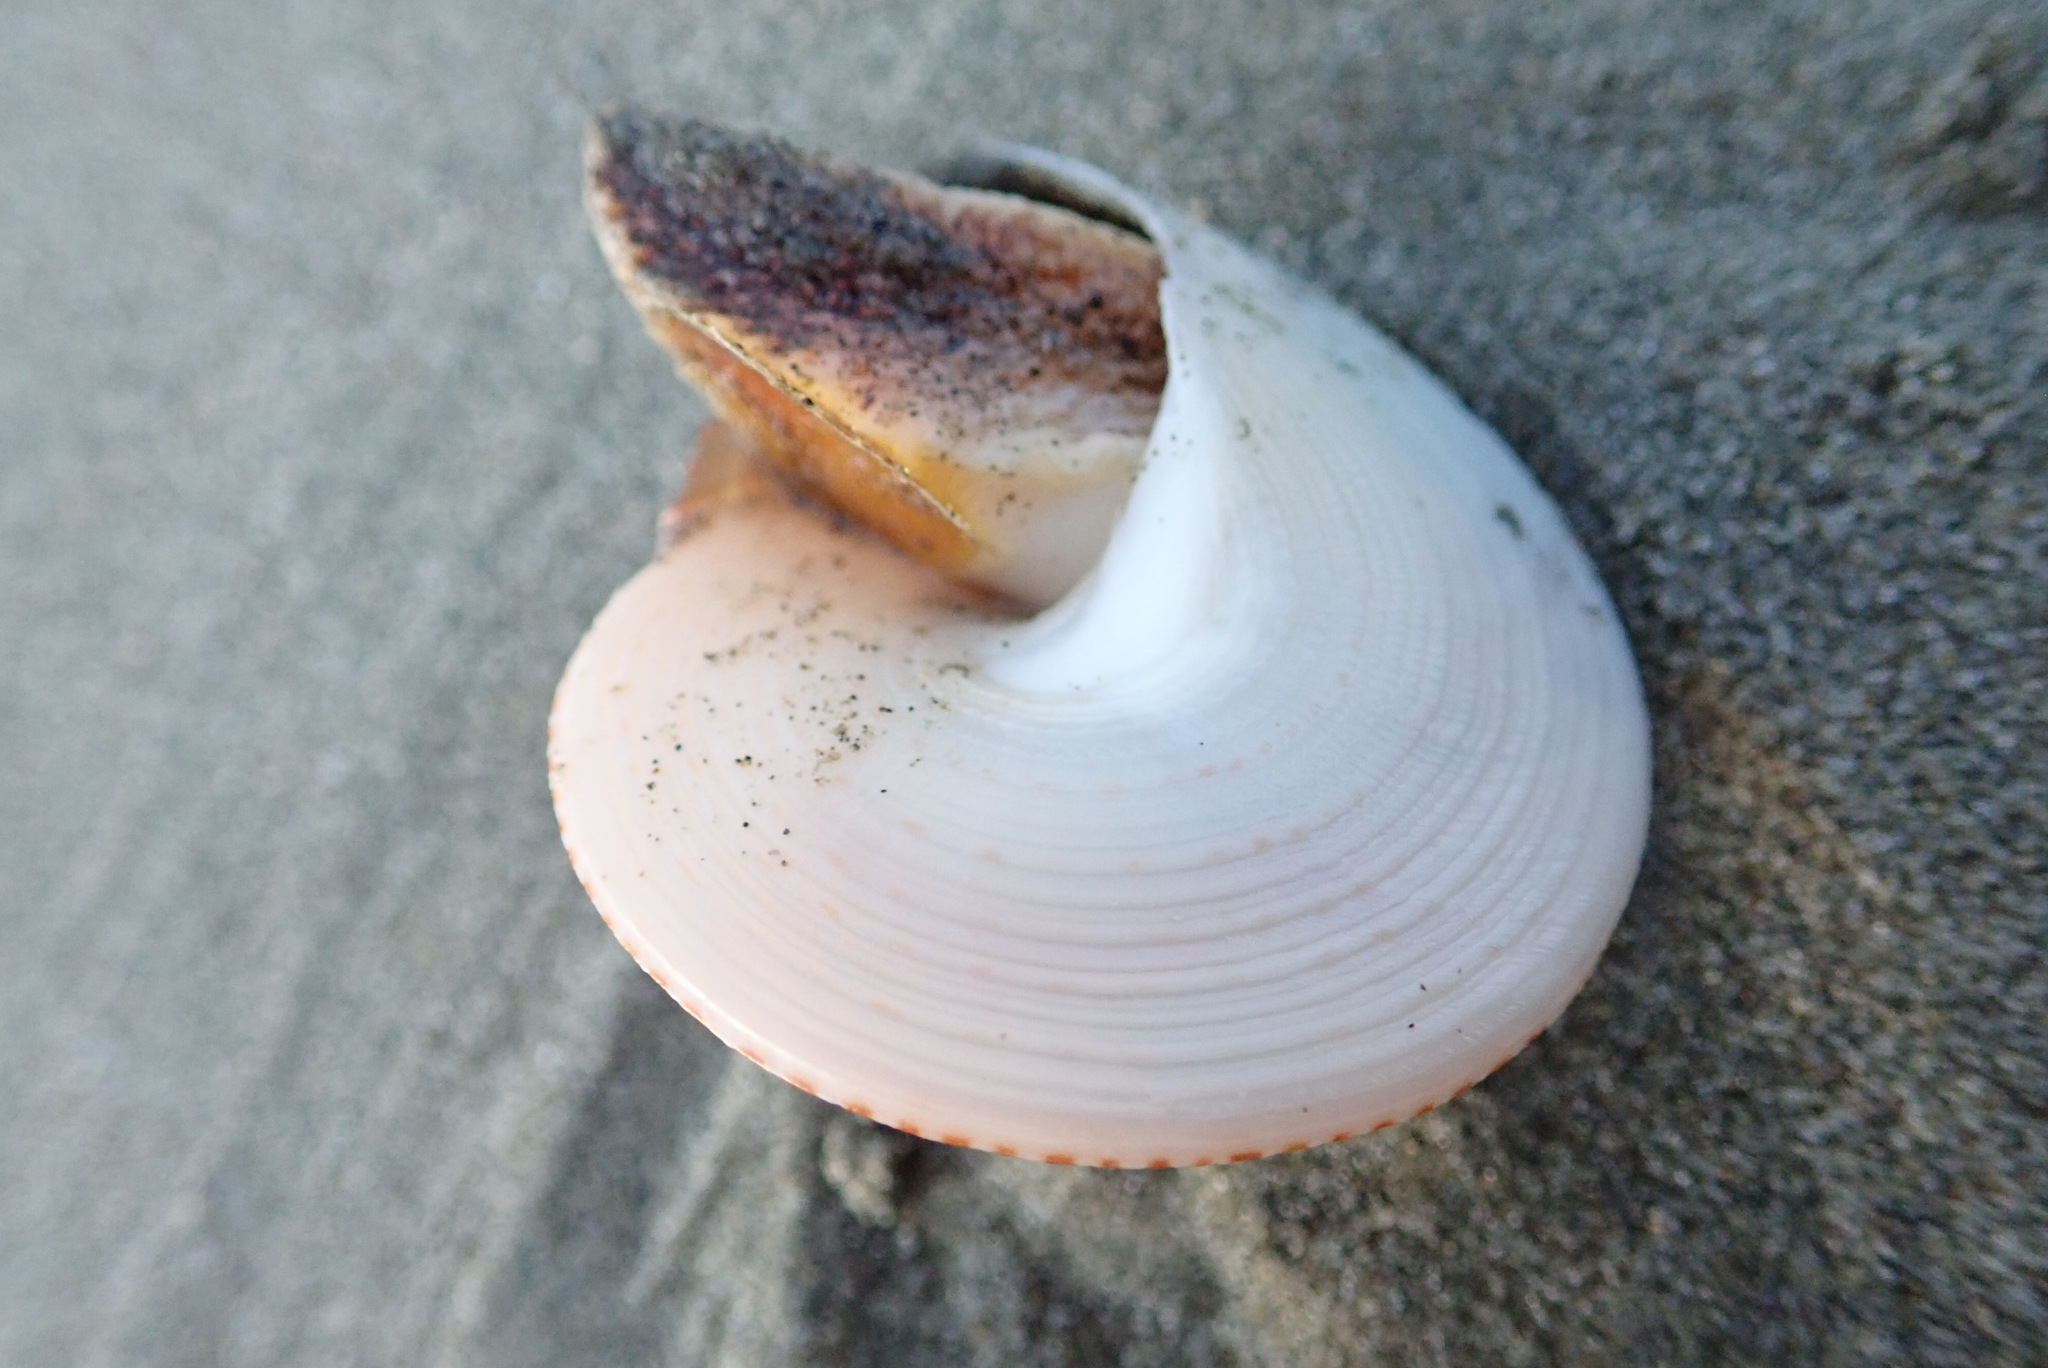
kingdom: Animalia
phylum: Mollusca
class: Gastropoda
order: Trochida
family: Calliostomatidae
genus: Maurea
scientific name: Maurea selecta
